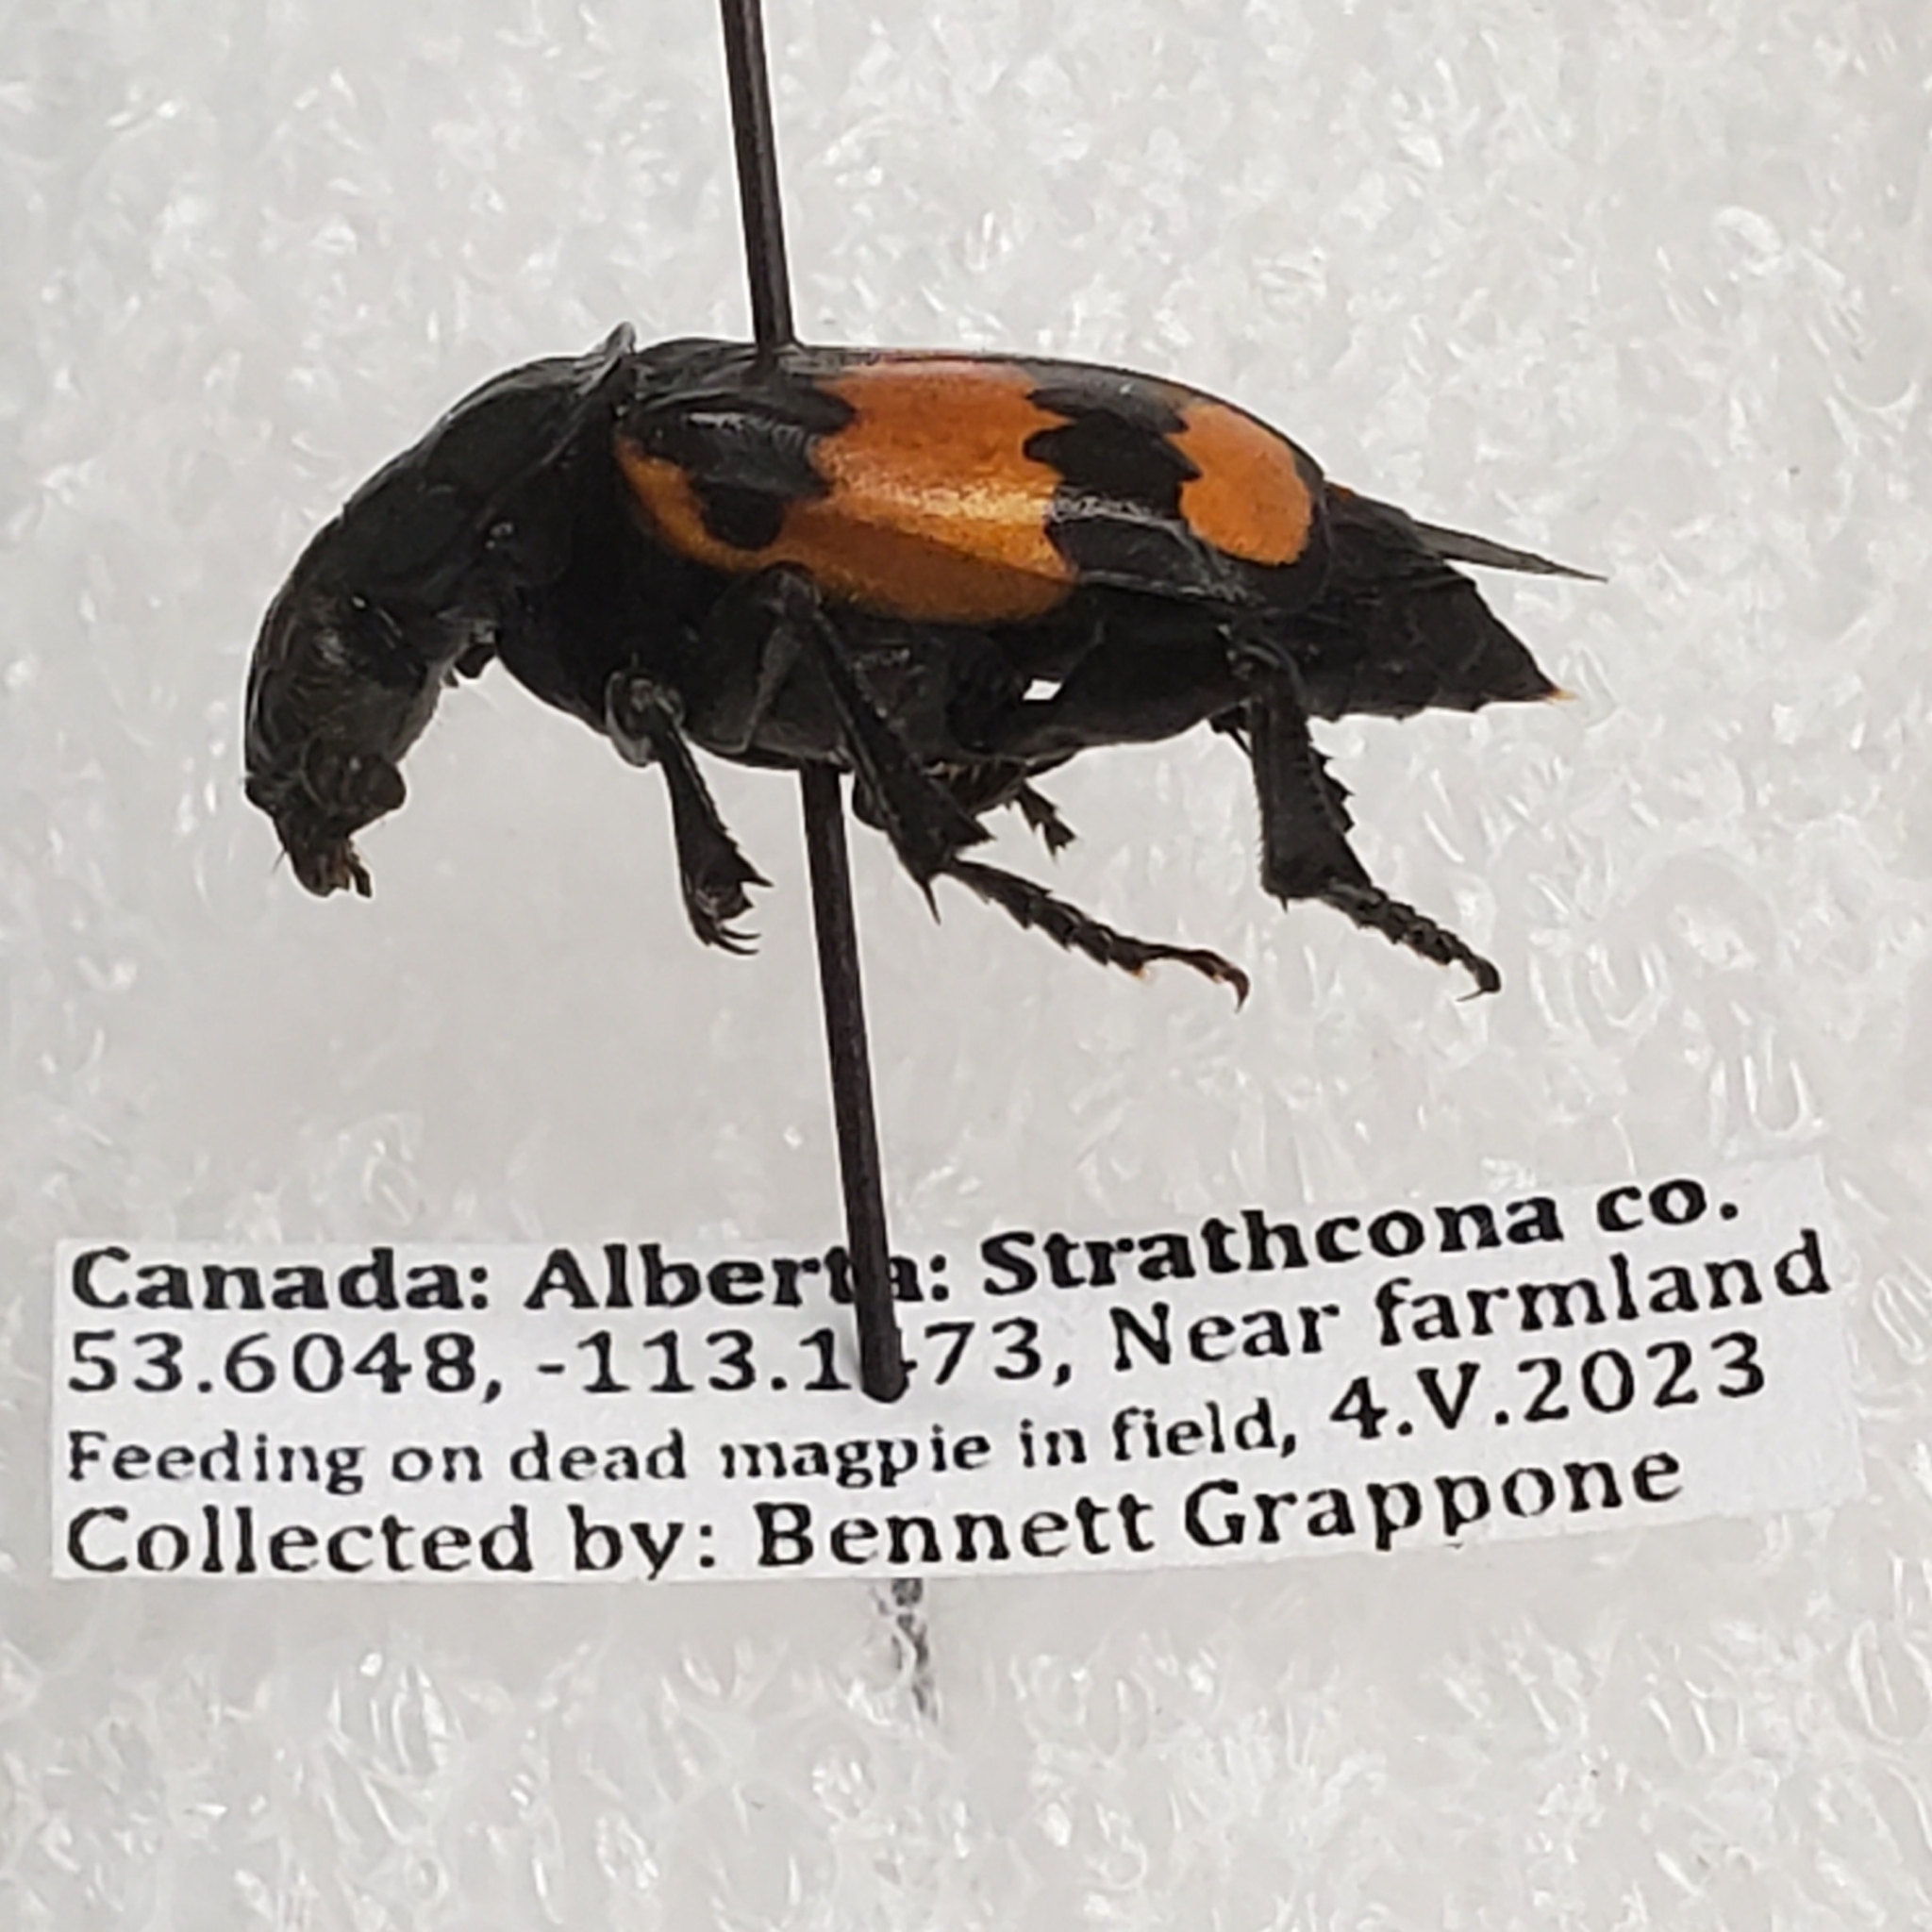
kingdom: Animalia
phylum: Arthropoda
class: Insecta
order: Coleoptera
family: Staphylinidae
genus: Nicrophorus
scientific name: Nicrophorus hebes
